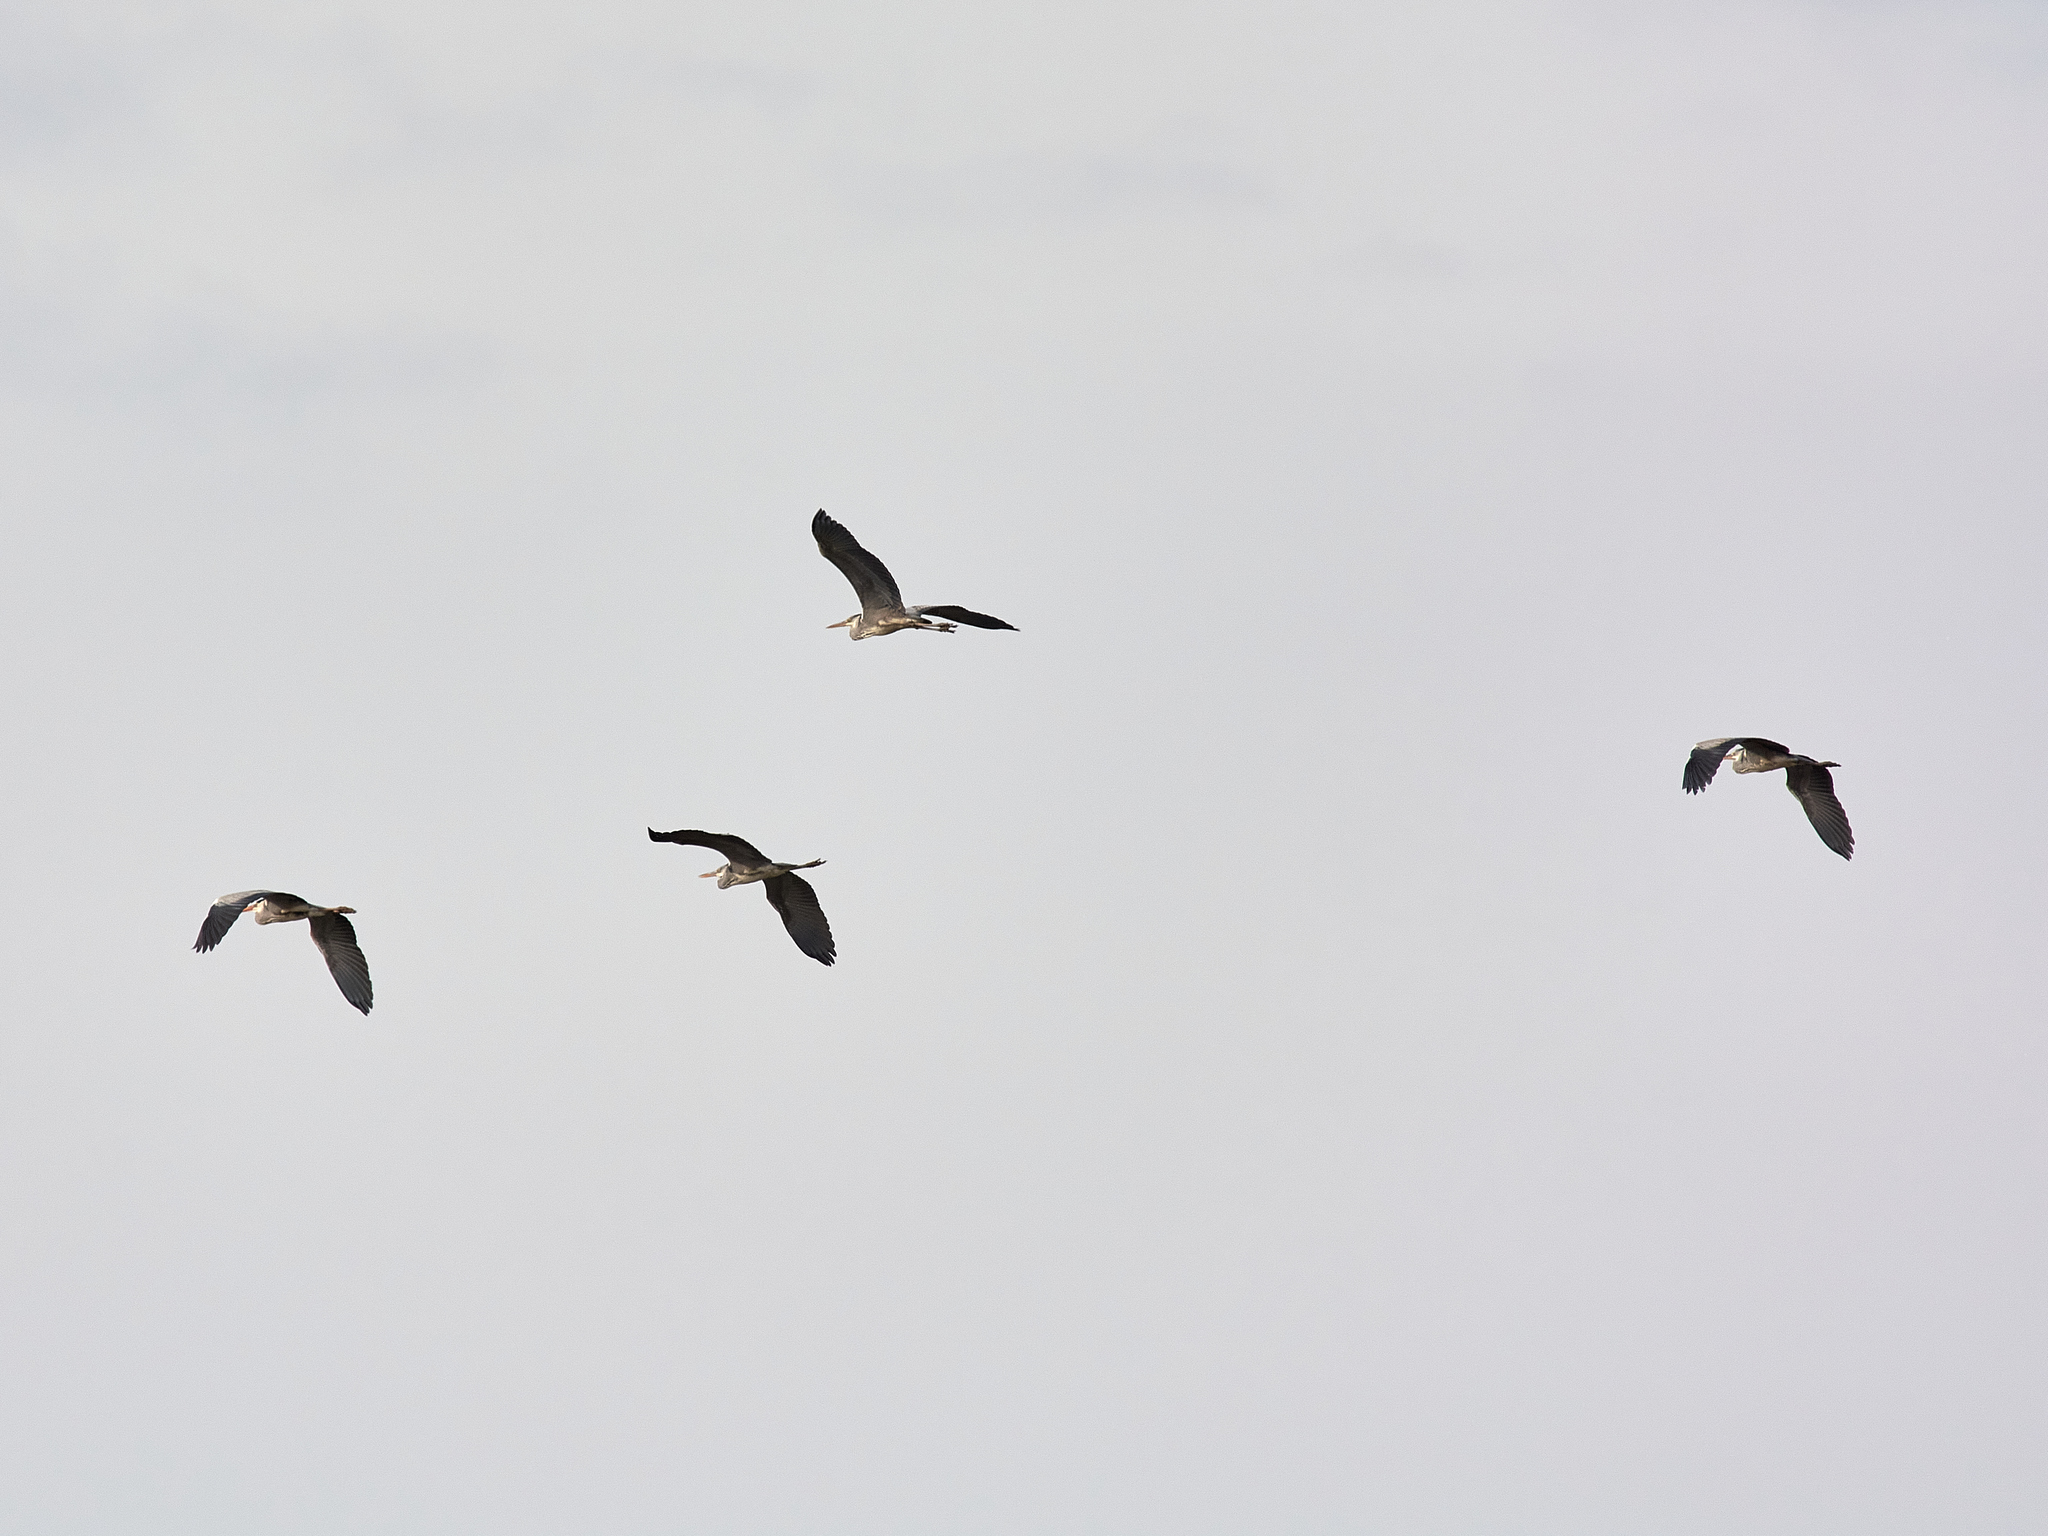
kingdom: Animalia
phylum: Chordata
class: Aves
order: Pelecaniformes
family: Ardeidae
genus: Ardea
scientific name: Ardea cinerea
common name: Grey heron
